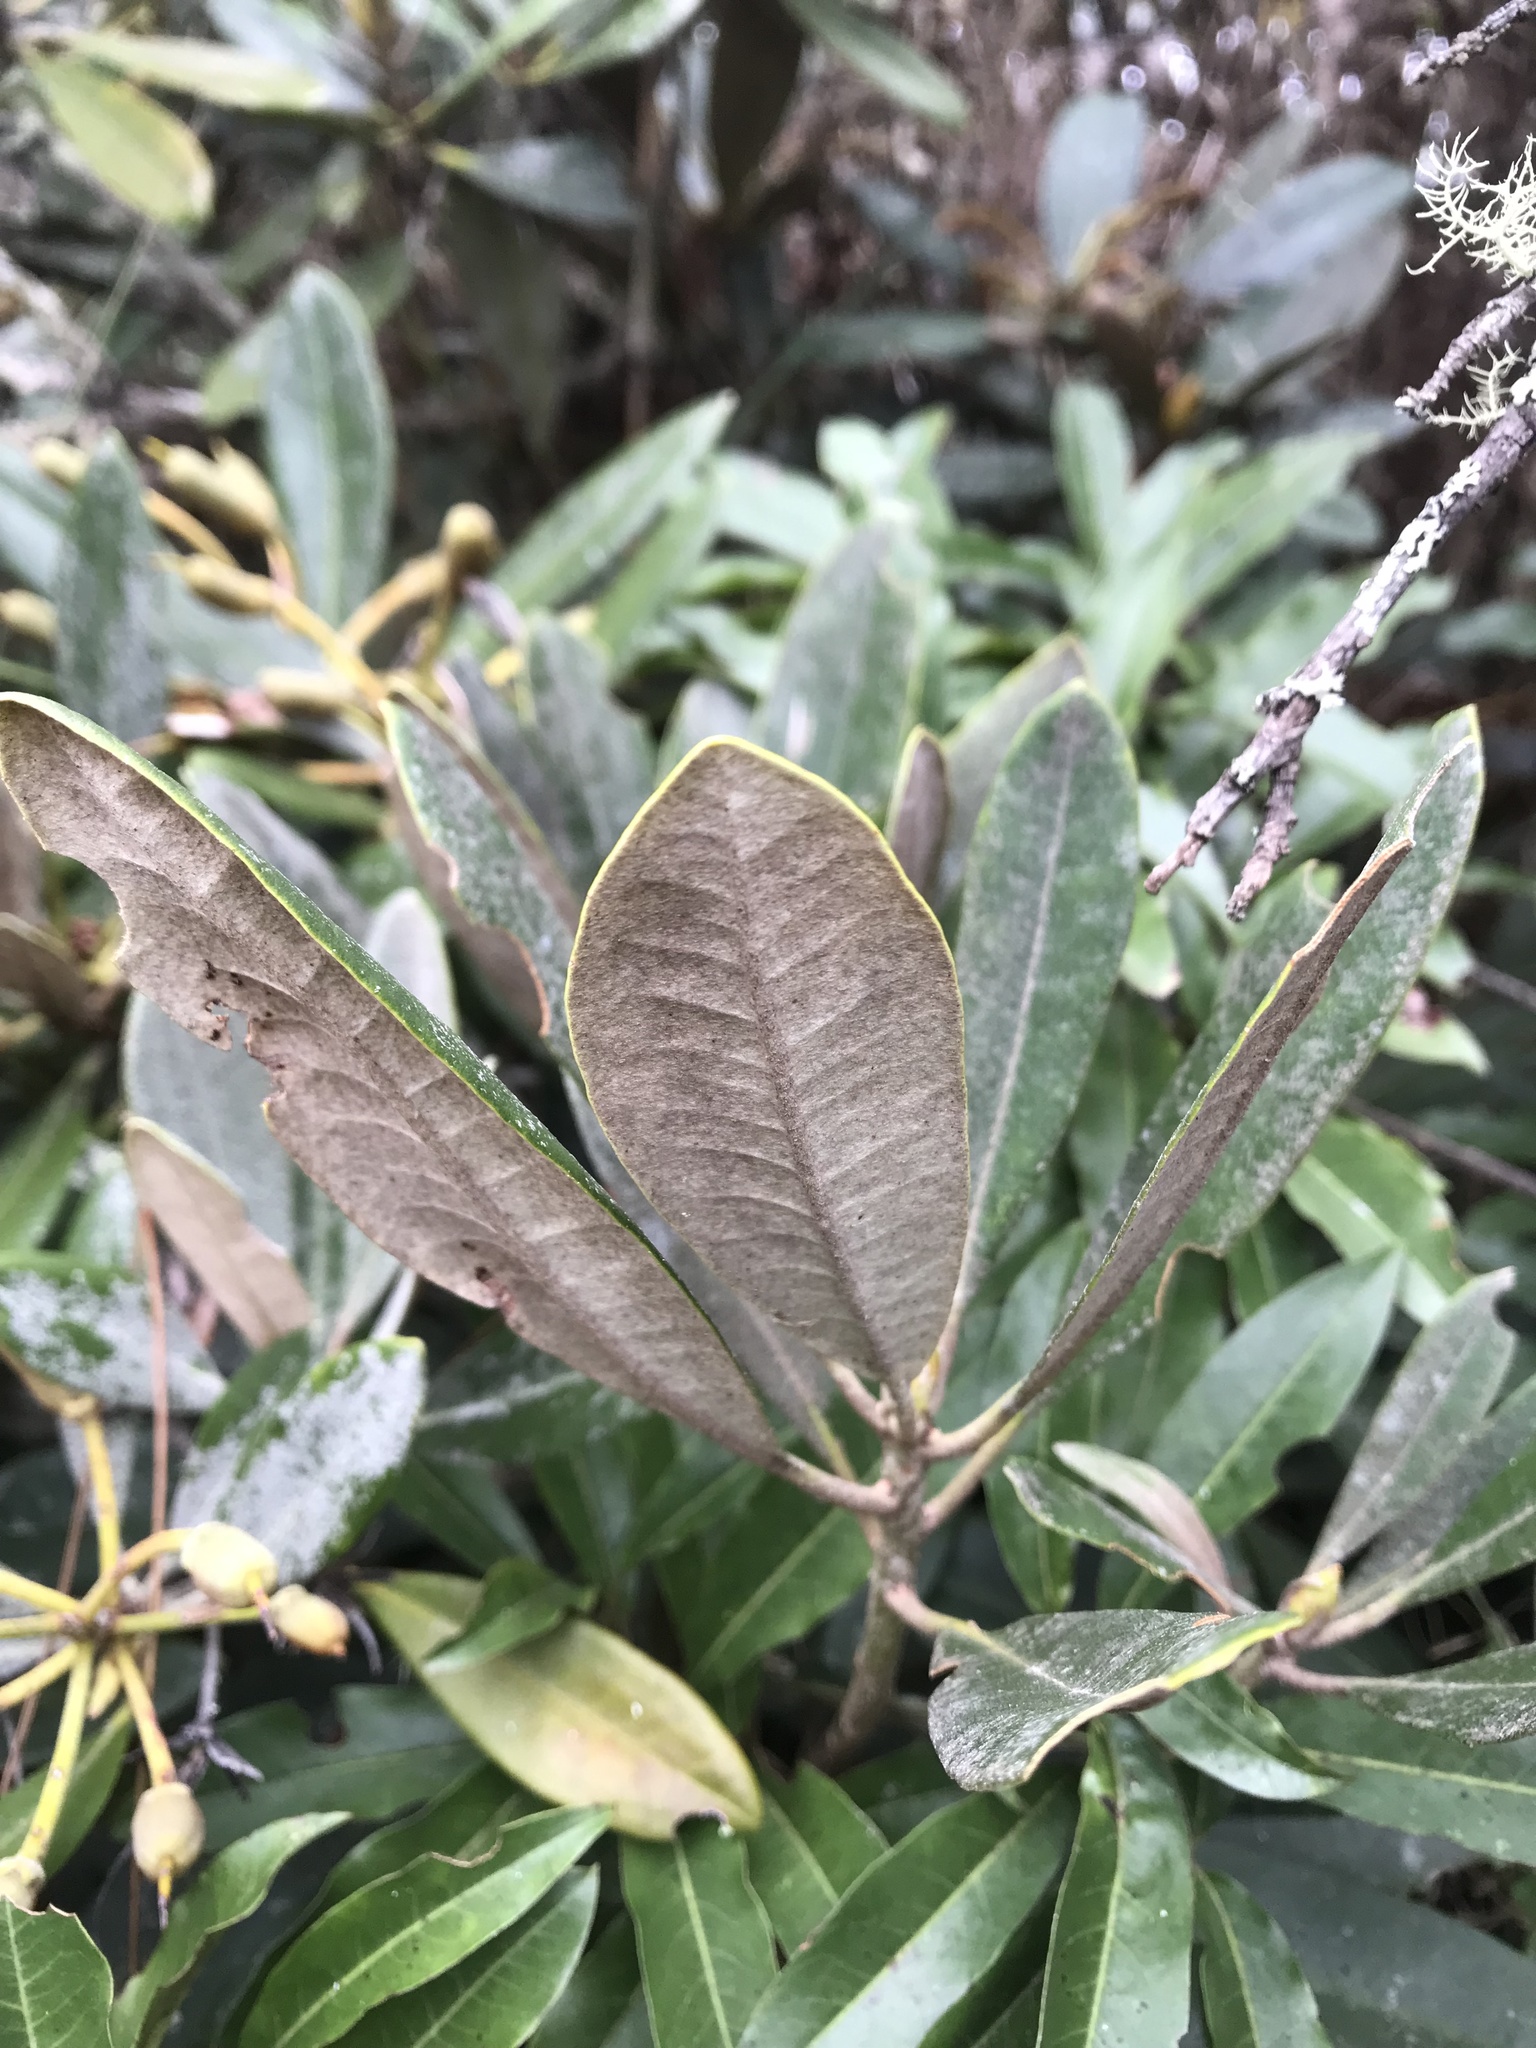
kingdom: Plantae
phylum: Tracheophyta
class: Magnoliopsida
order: Ericales
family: Ericaceae
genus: Rhododendron
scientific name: Rhododendron formosanum
